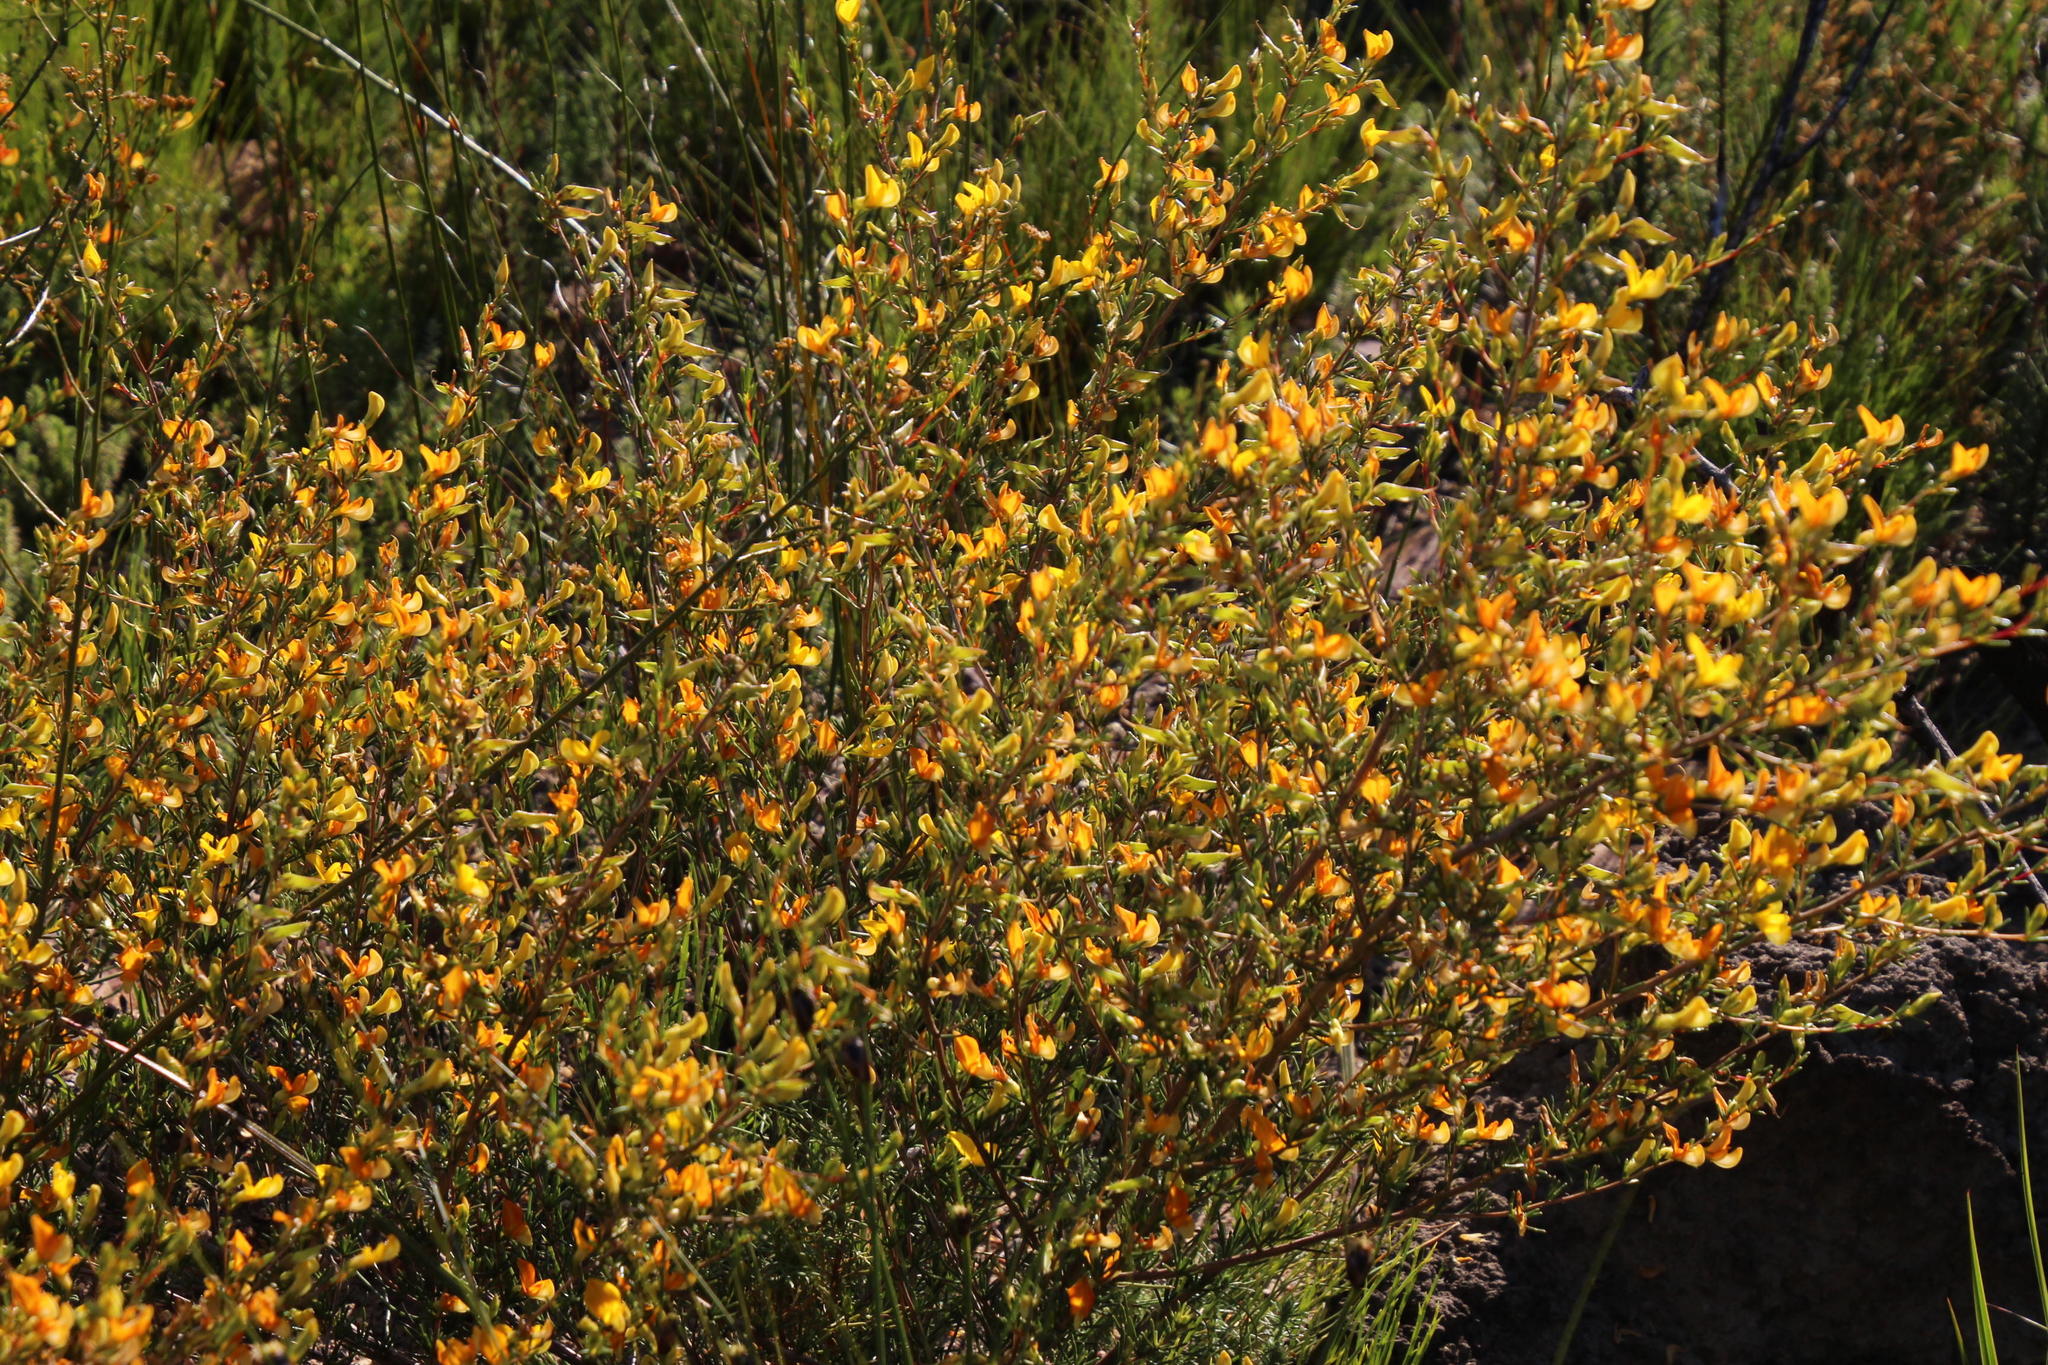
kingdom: Plantae
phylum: Tracheophyta
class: Magnoliopsida
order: Fabales
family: Fabaceae
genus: Aspalathus
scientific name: Aspalathus abietina
